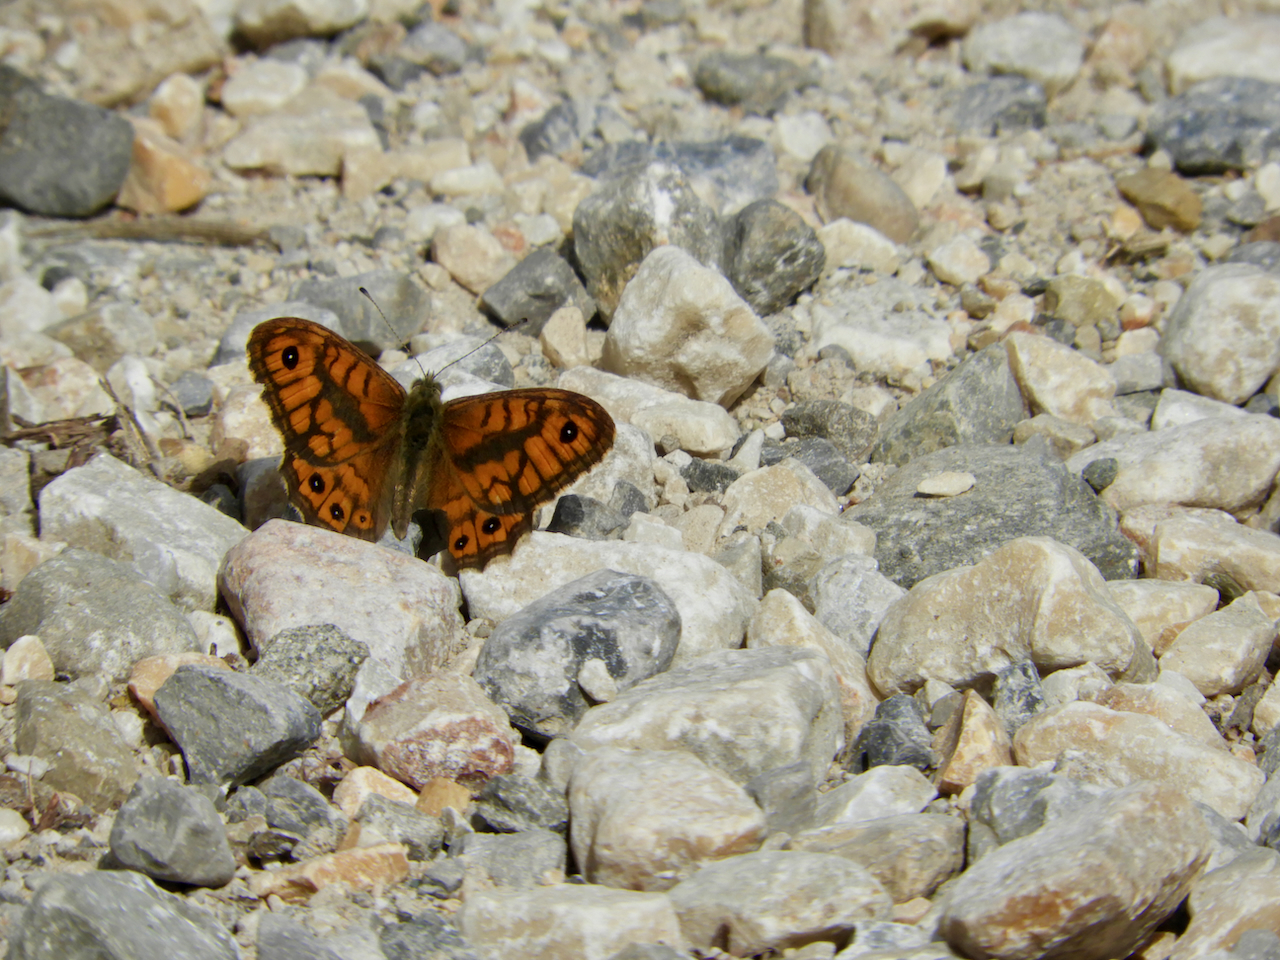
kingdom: Animalia
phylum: Arthropoda
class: Insecta
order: Lepidoptera
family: Nymphalidae
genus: Pararge
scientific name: Pararge Lasiommata megera
